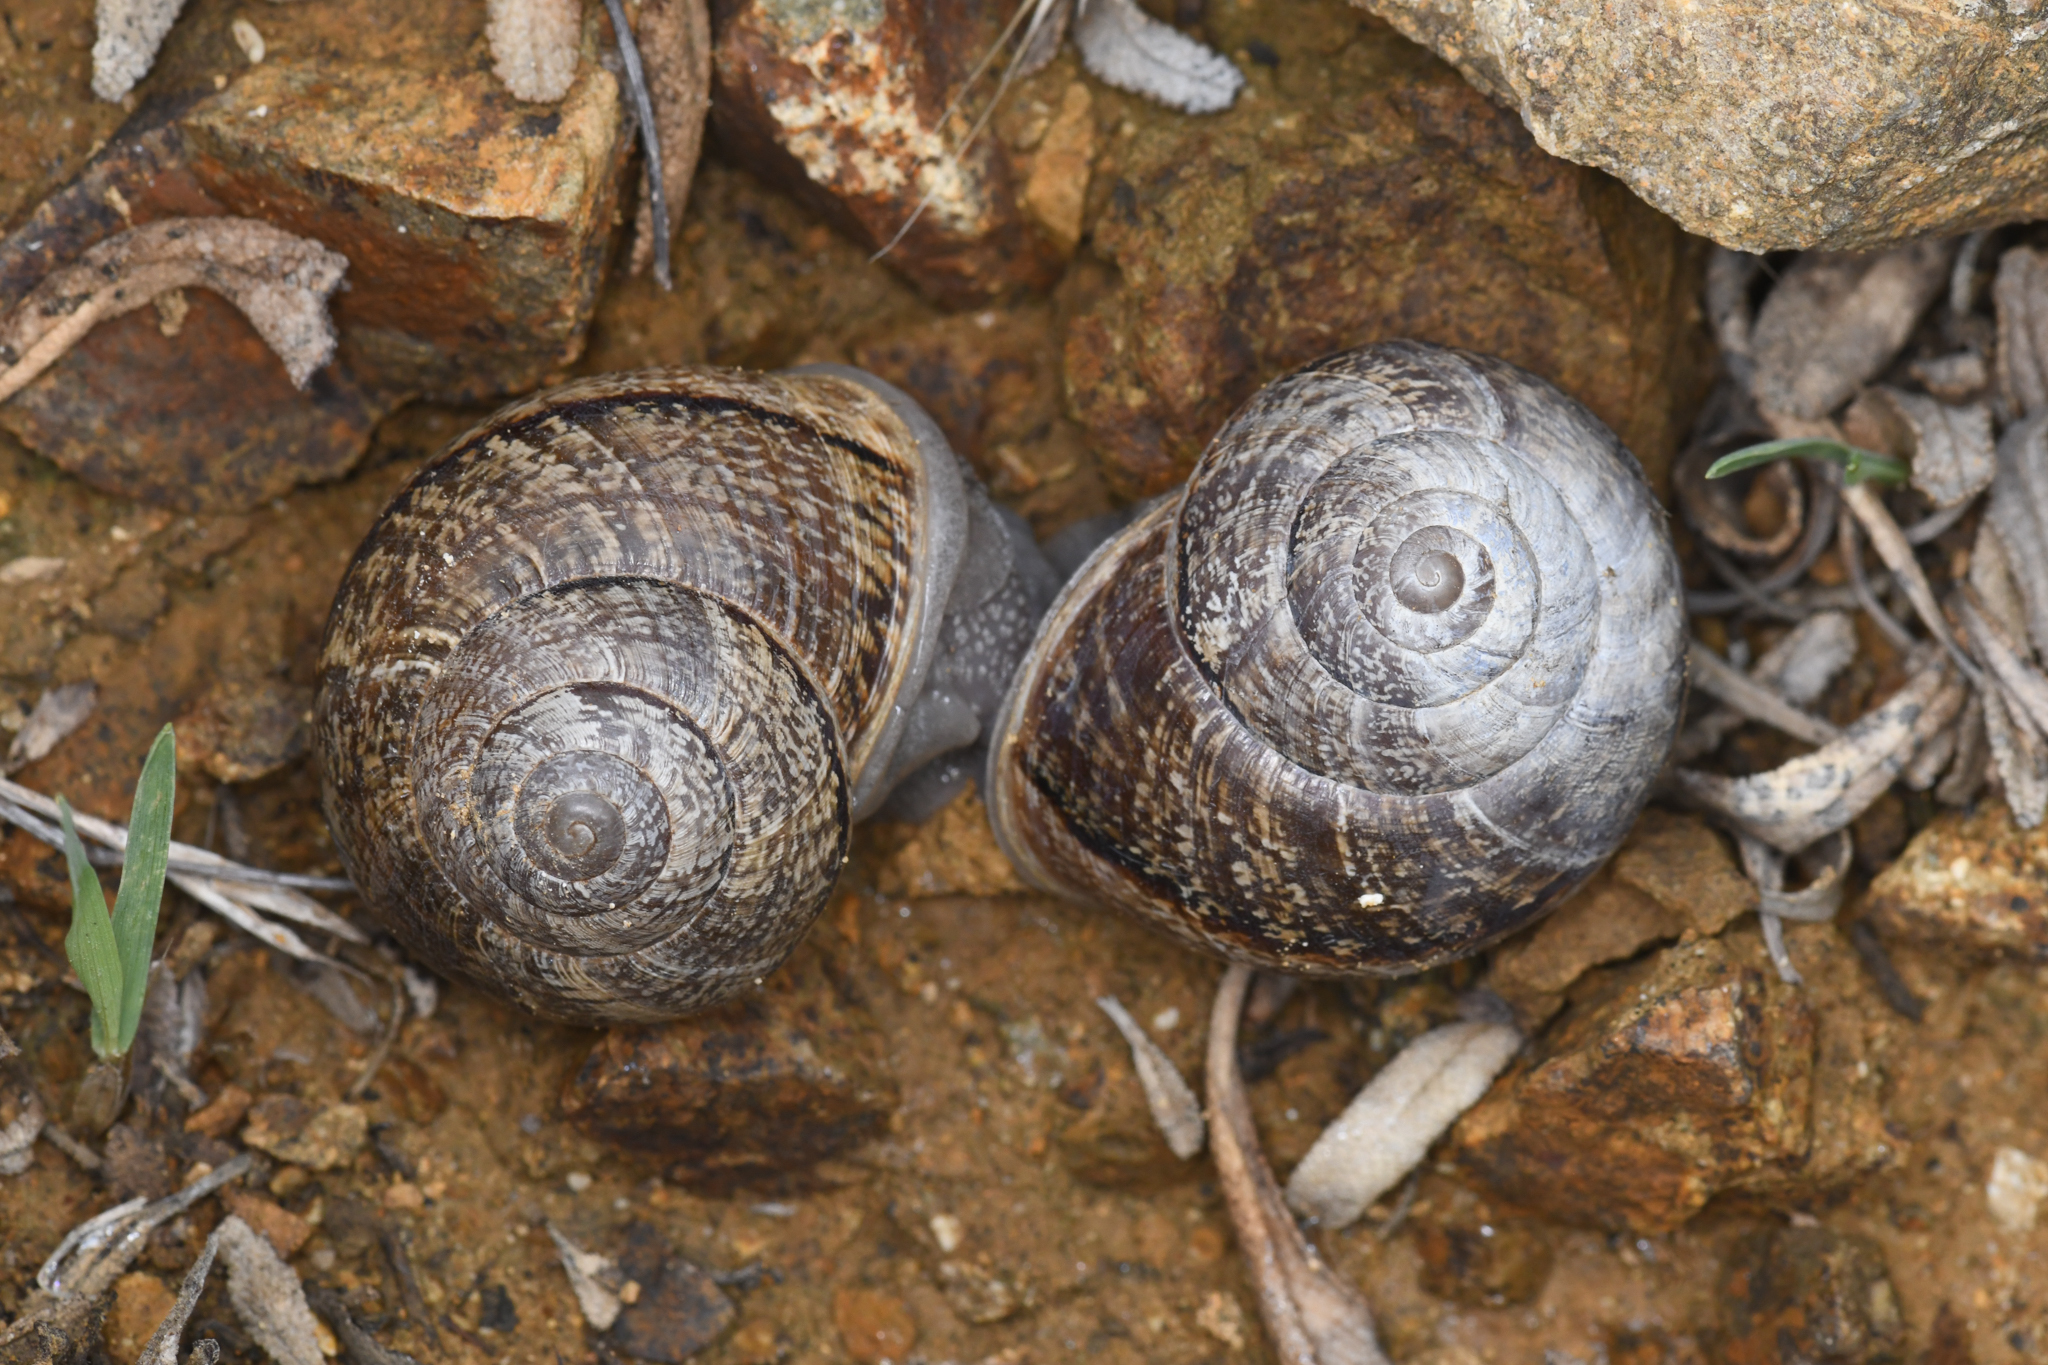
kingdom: Animalia
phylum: Mollusca
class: Gastropoda
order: Stylommatophora
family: Xanthonychidae
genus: Xerarionta
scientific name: Xerarionta kellettii
